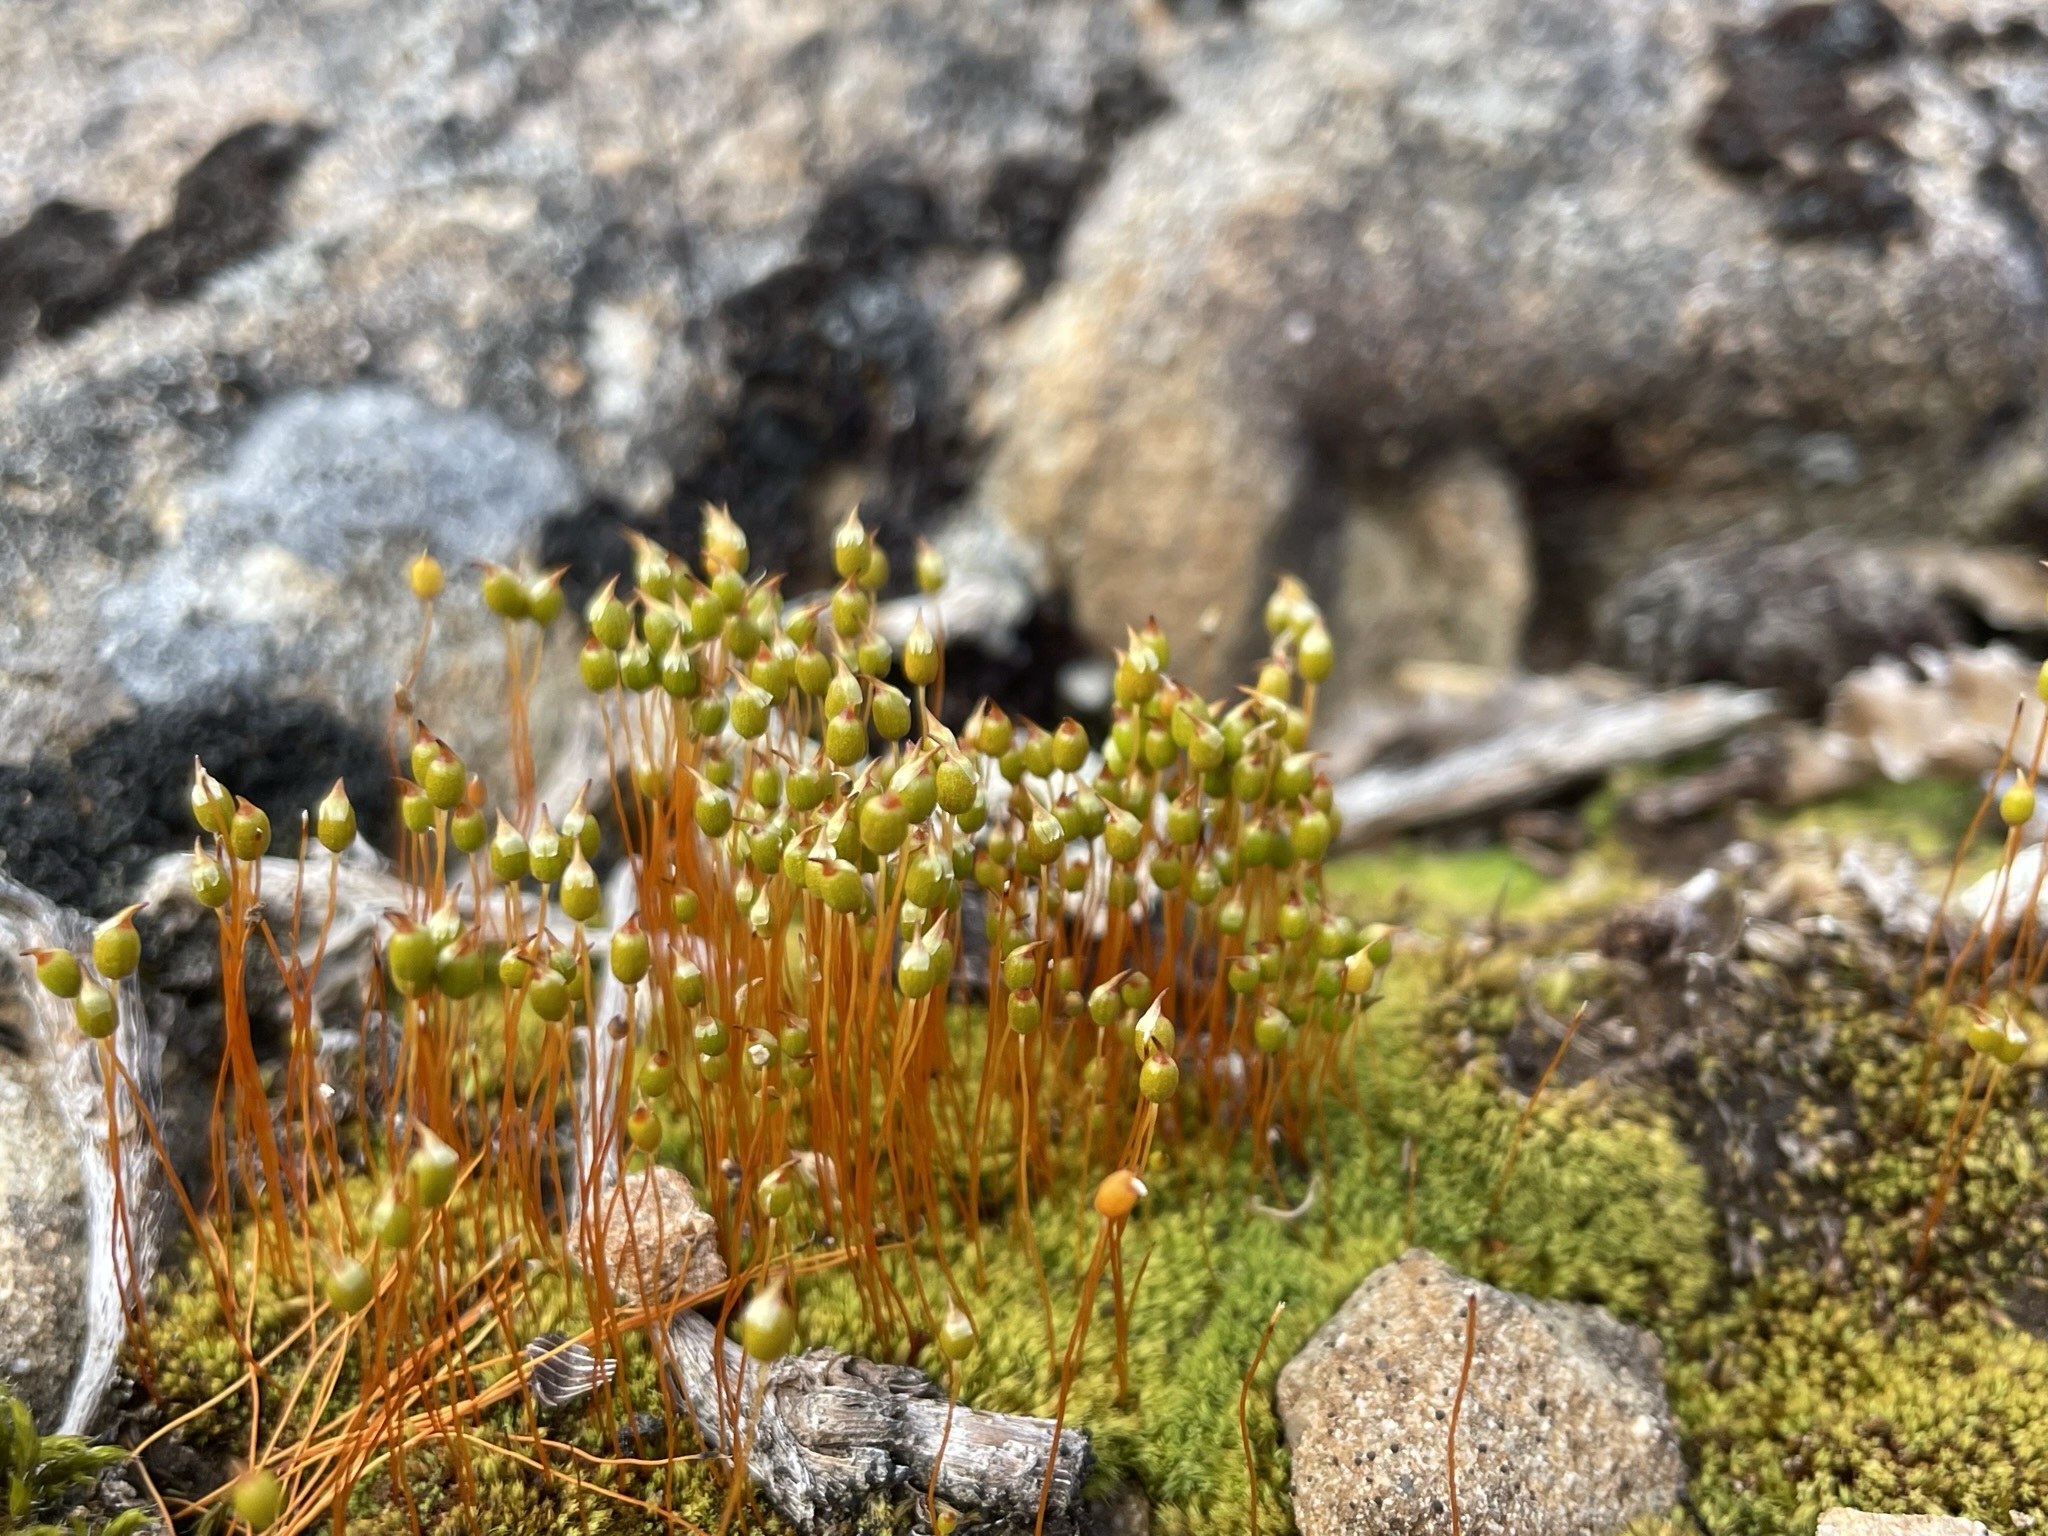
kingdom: Plantae
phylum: Bryophyta
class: Bryopsida
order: Bartramiales
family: Bartramiaceae
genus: Conostomum
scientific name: Conostomum pentastichum
